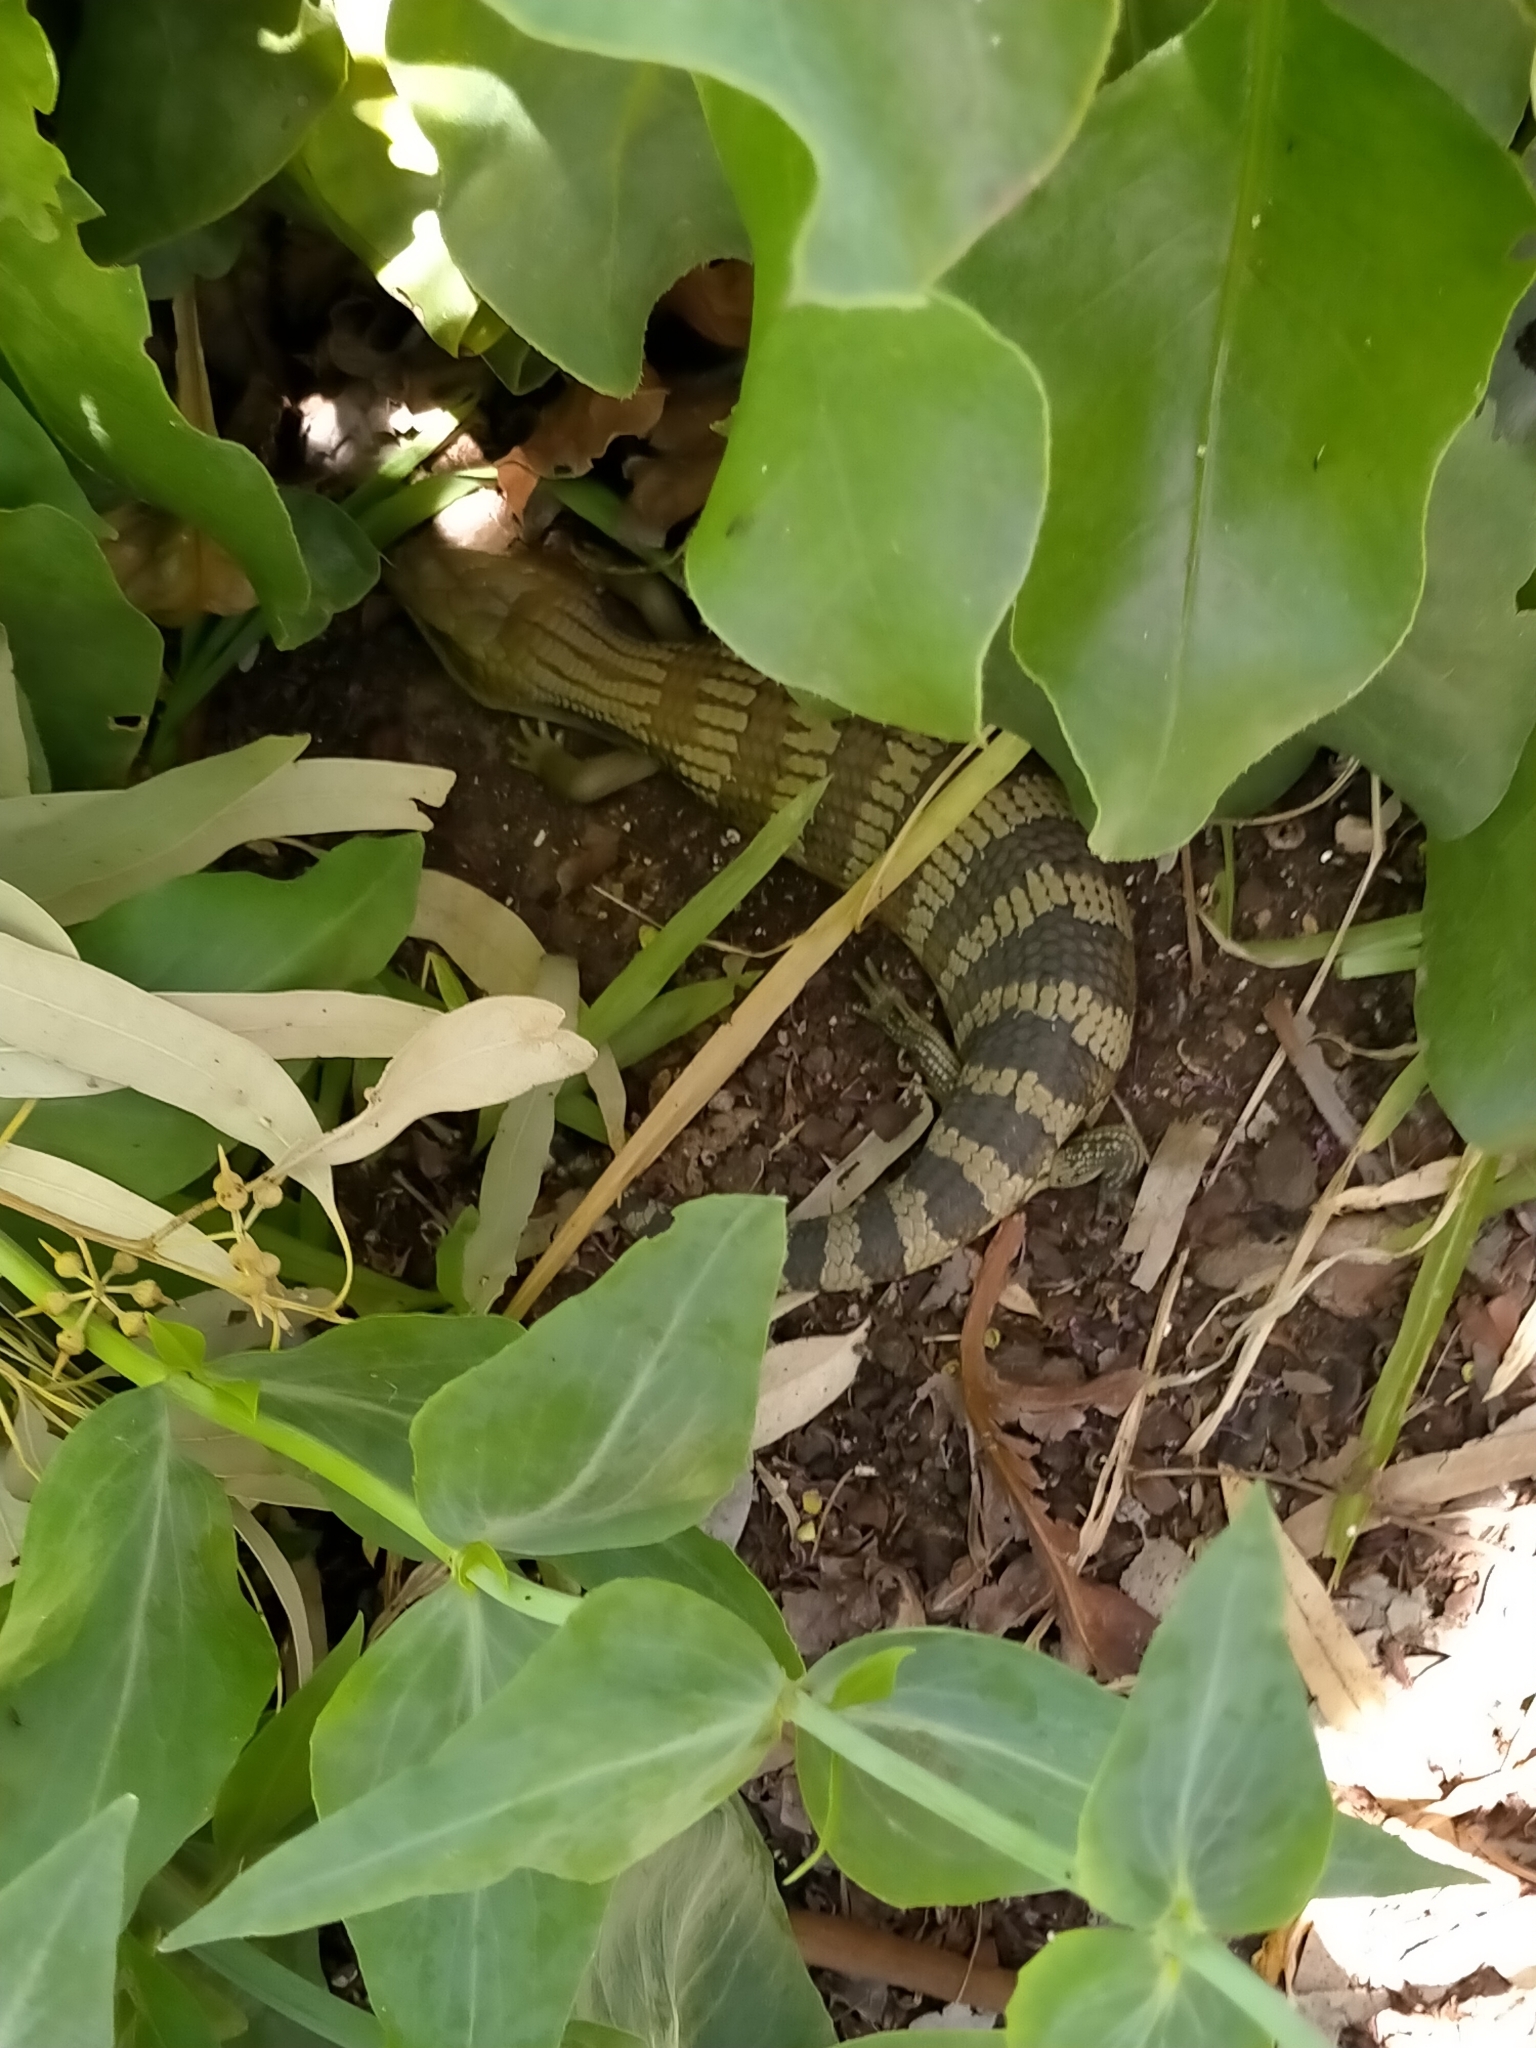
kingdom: Animalia
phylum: Chordata
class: Squamata
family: Scincidae
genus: Tiliqua
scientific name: Tiliqua scincoides
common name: Common bluetongue
